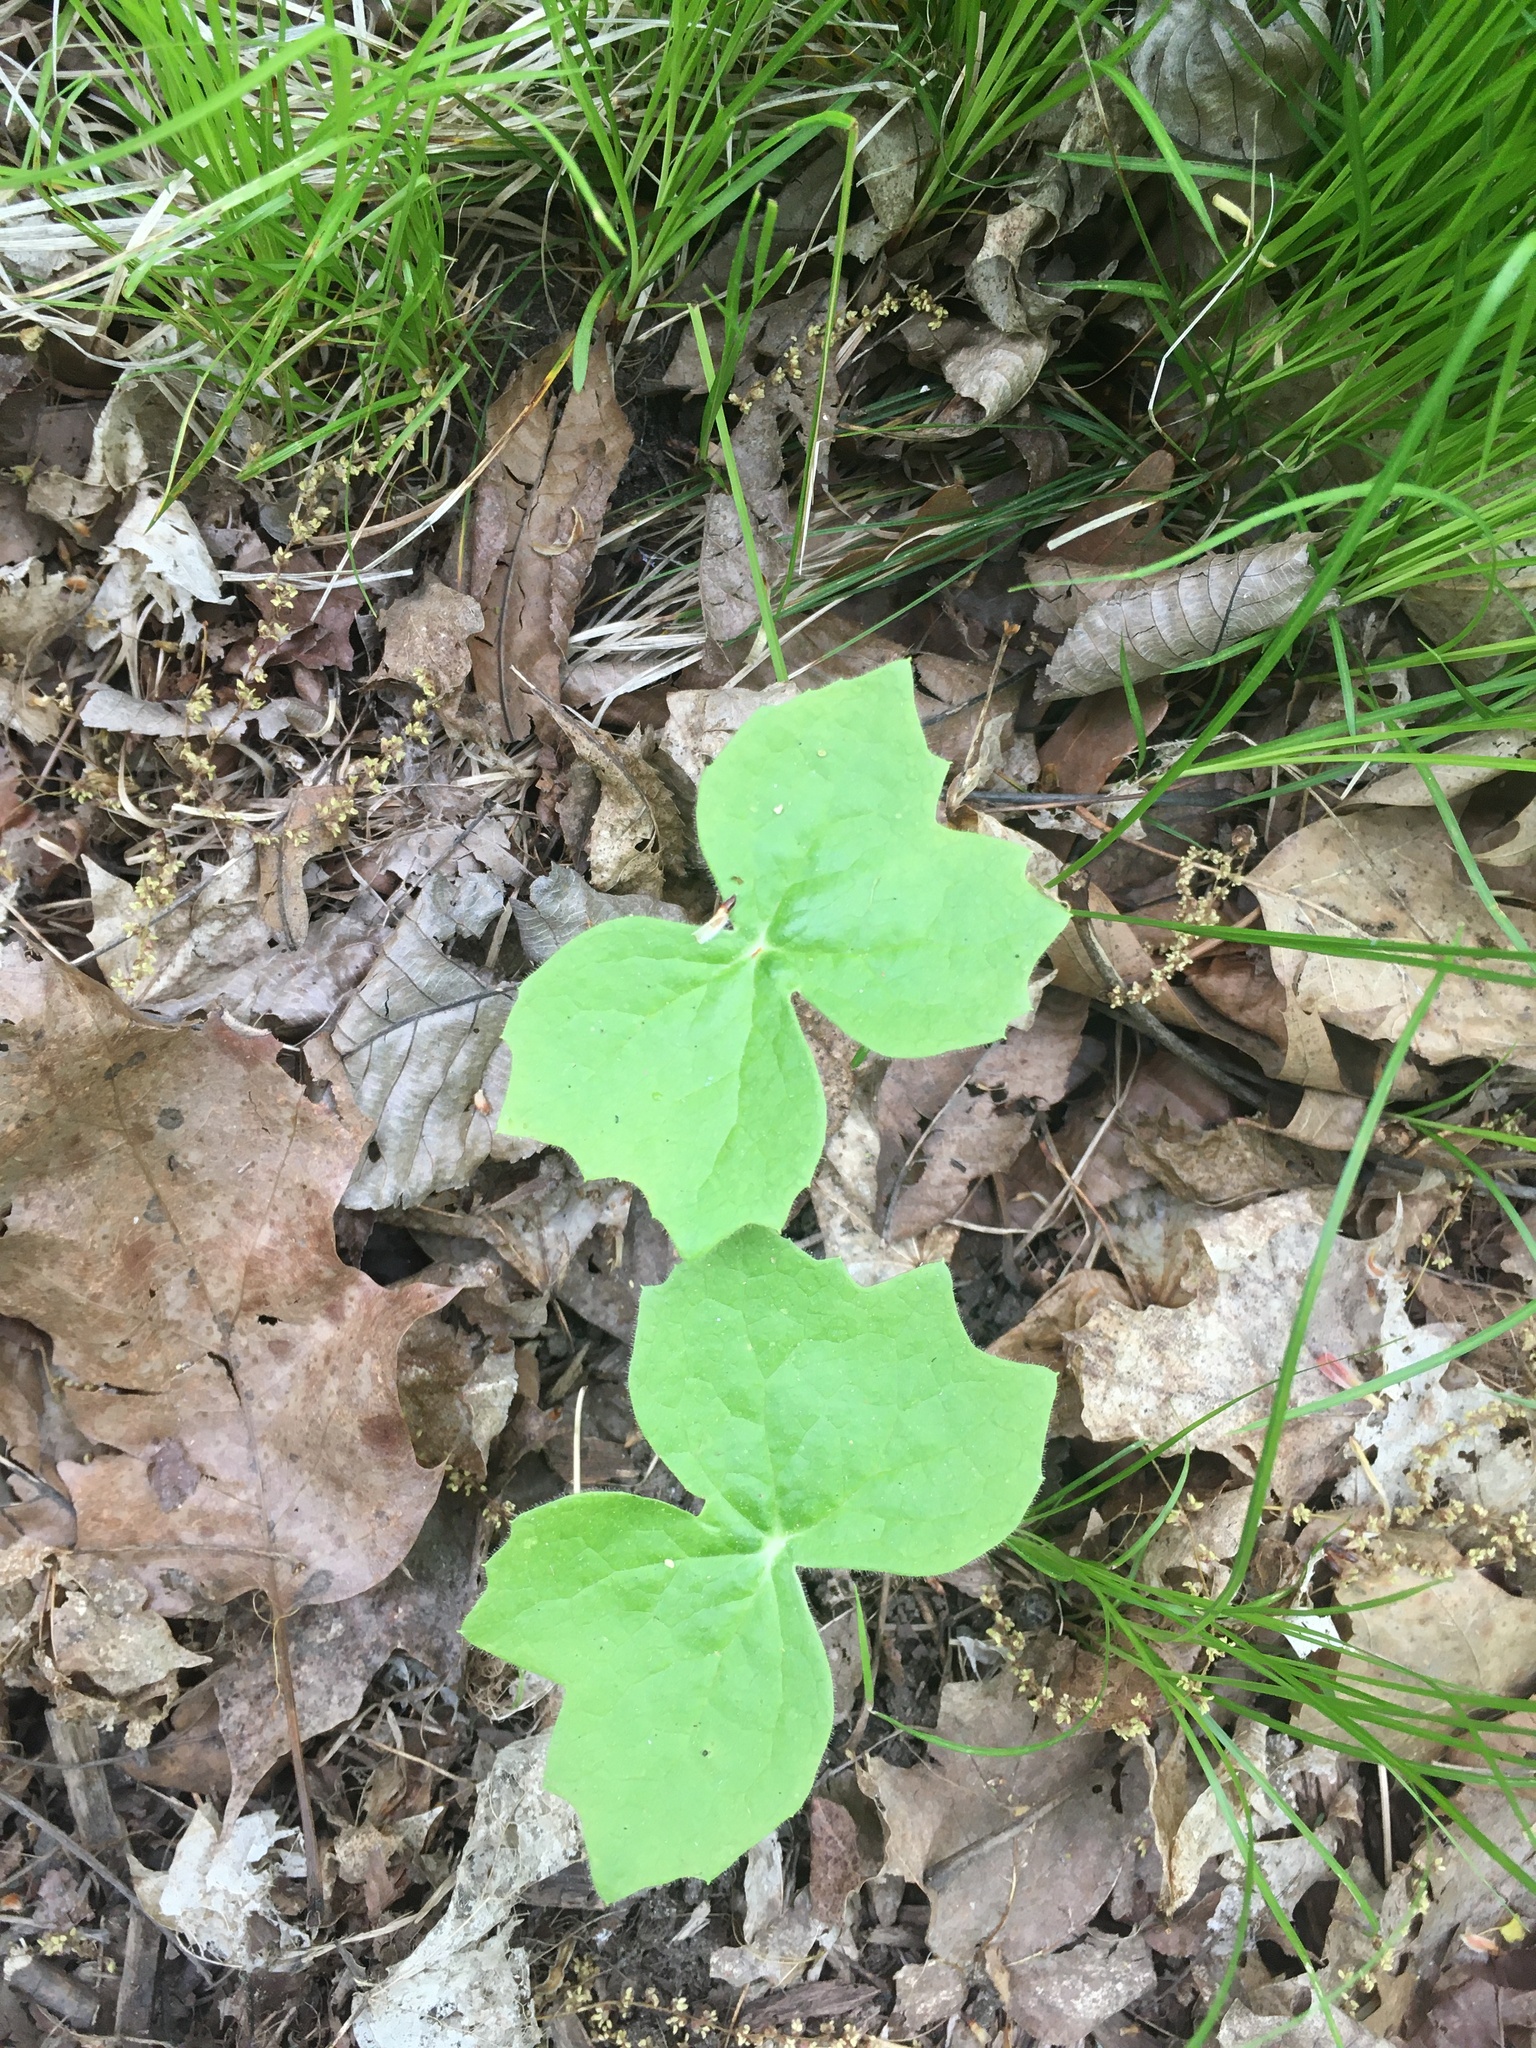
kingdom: Plantae
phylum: Tracheophyta
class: Magnoliopsida
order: Ranunculales
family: Berberidaceae
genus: Podophyllum
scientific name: Podophyllum peltatum
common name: Wild mandrake
